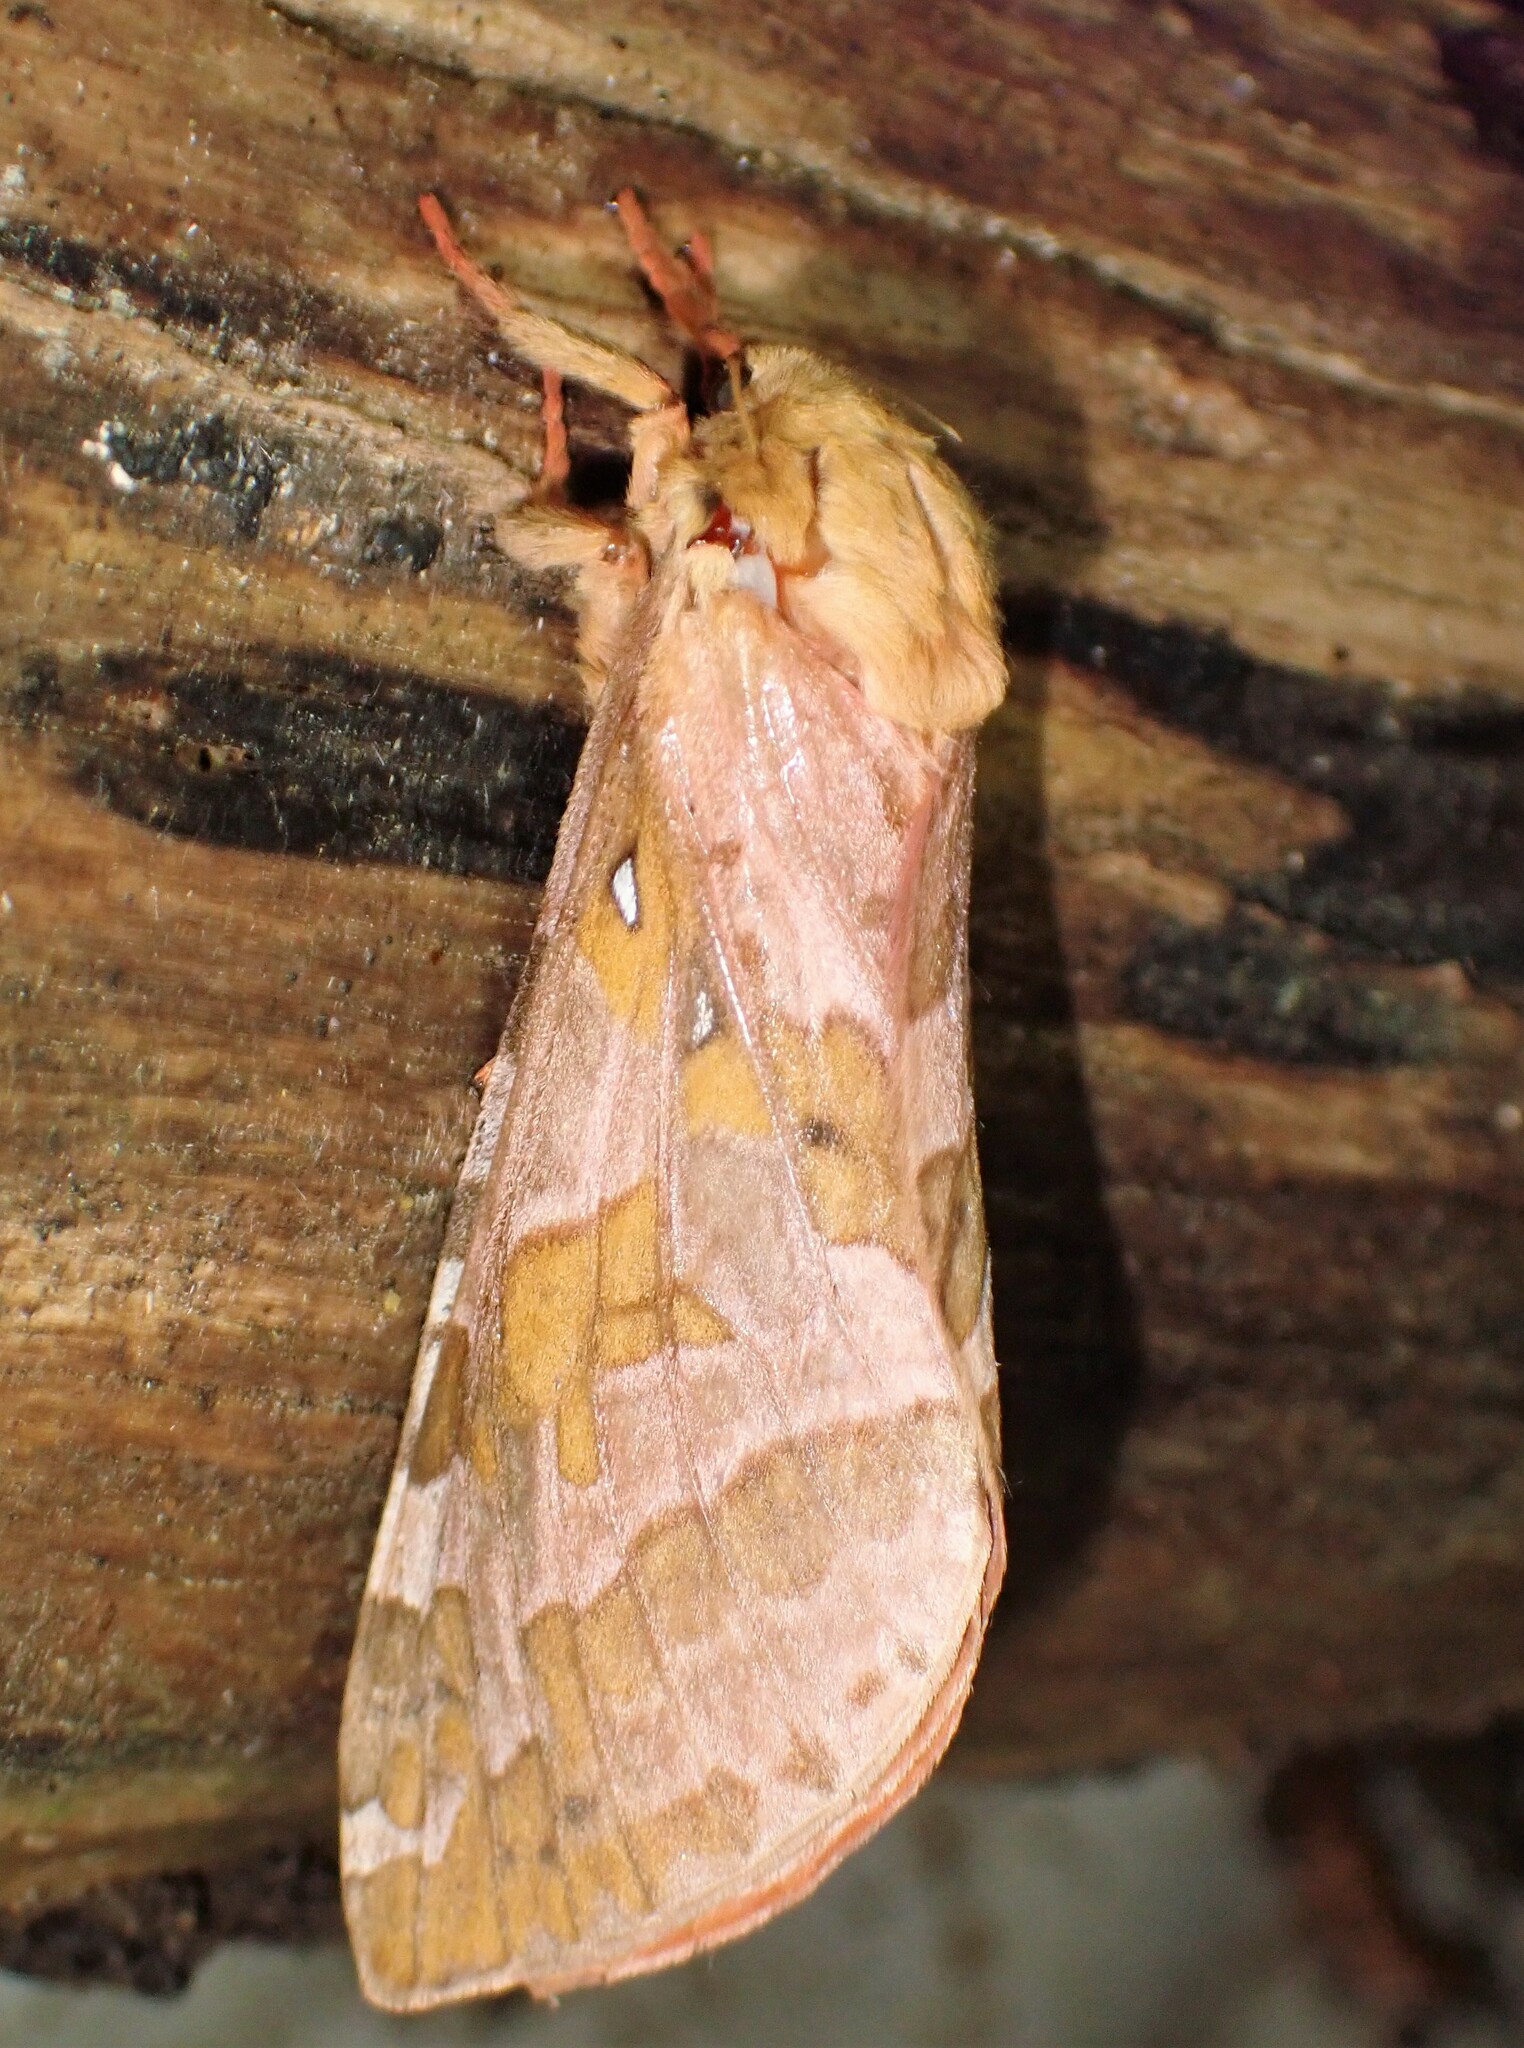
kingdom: Animalia
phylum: Arthropoda
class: Insecta
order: Lepidoptera
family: Hepialidae
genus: Sthenopis
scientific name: Sthenopis purpurascens
